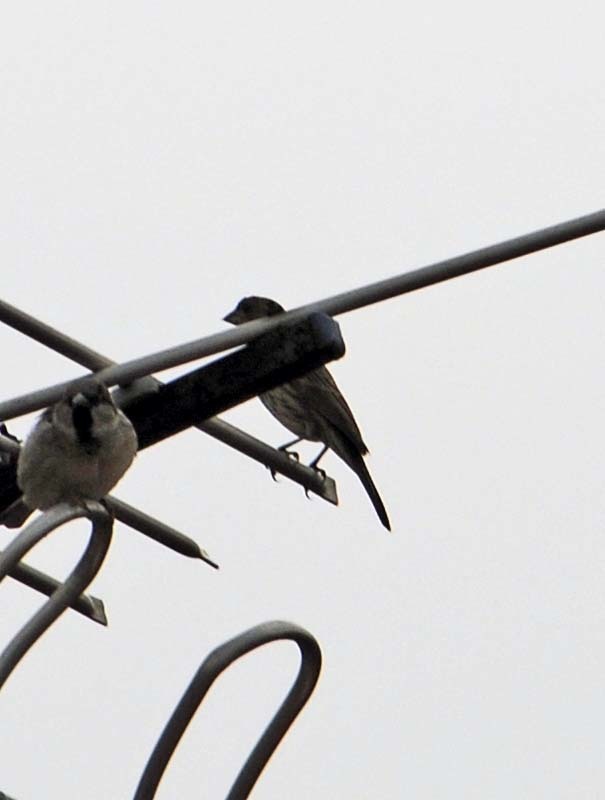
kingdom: Animalia
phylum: Chordata
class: Aves
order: Passeriformes
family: Fringillidae
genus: Haemorhous
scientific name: Haemorhous mexicanus
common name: House finch
